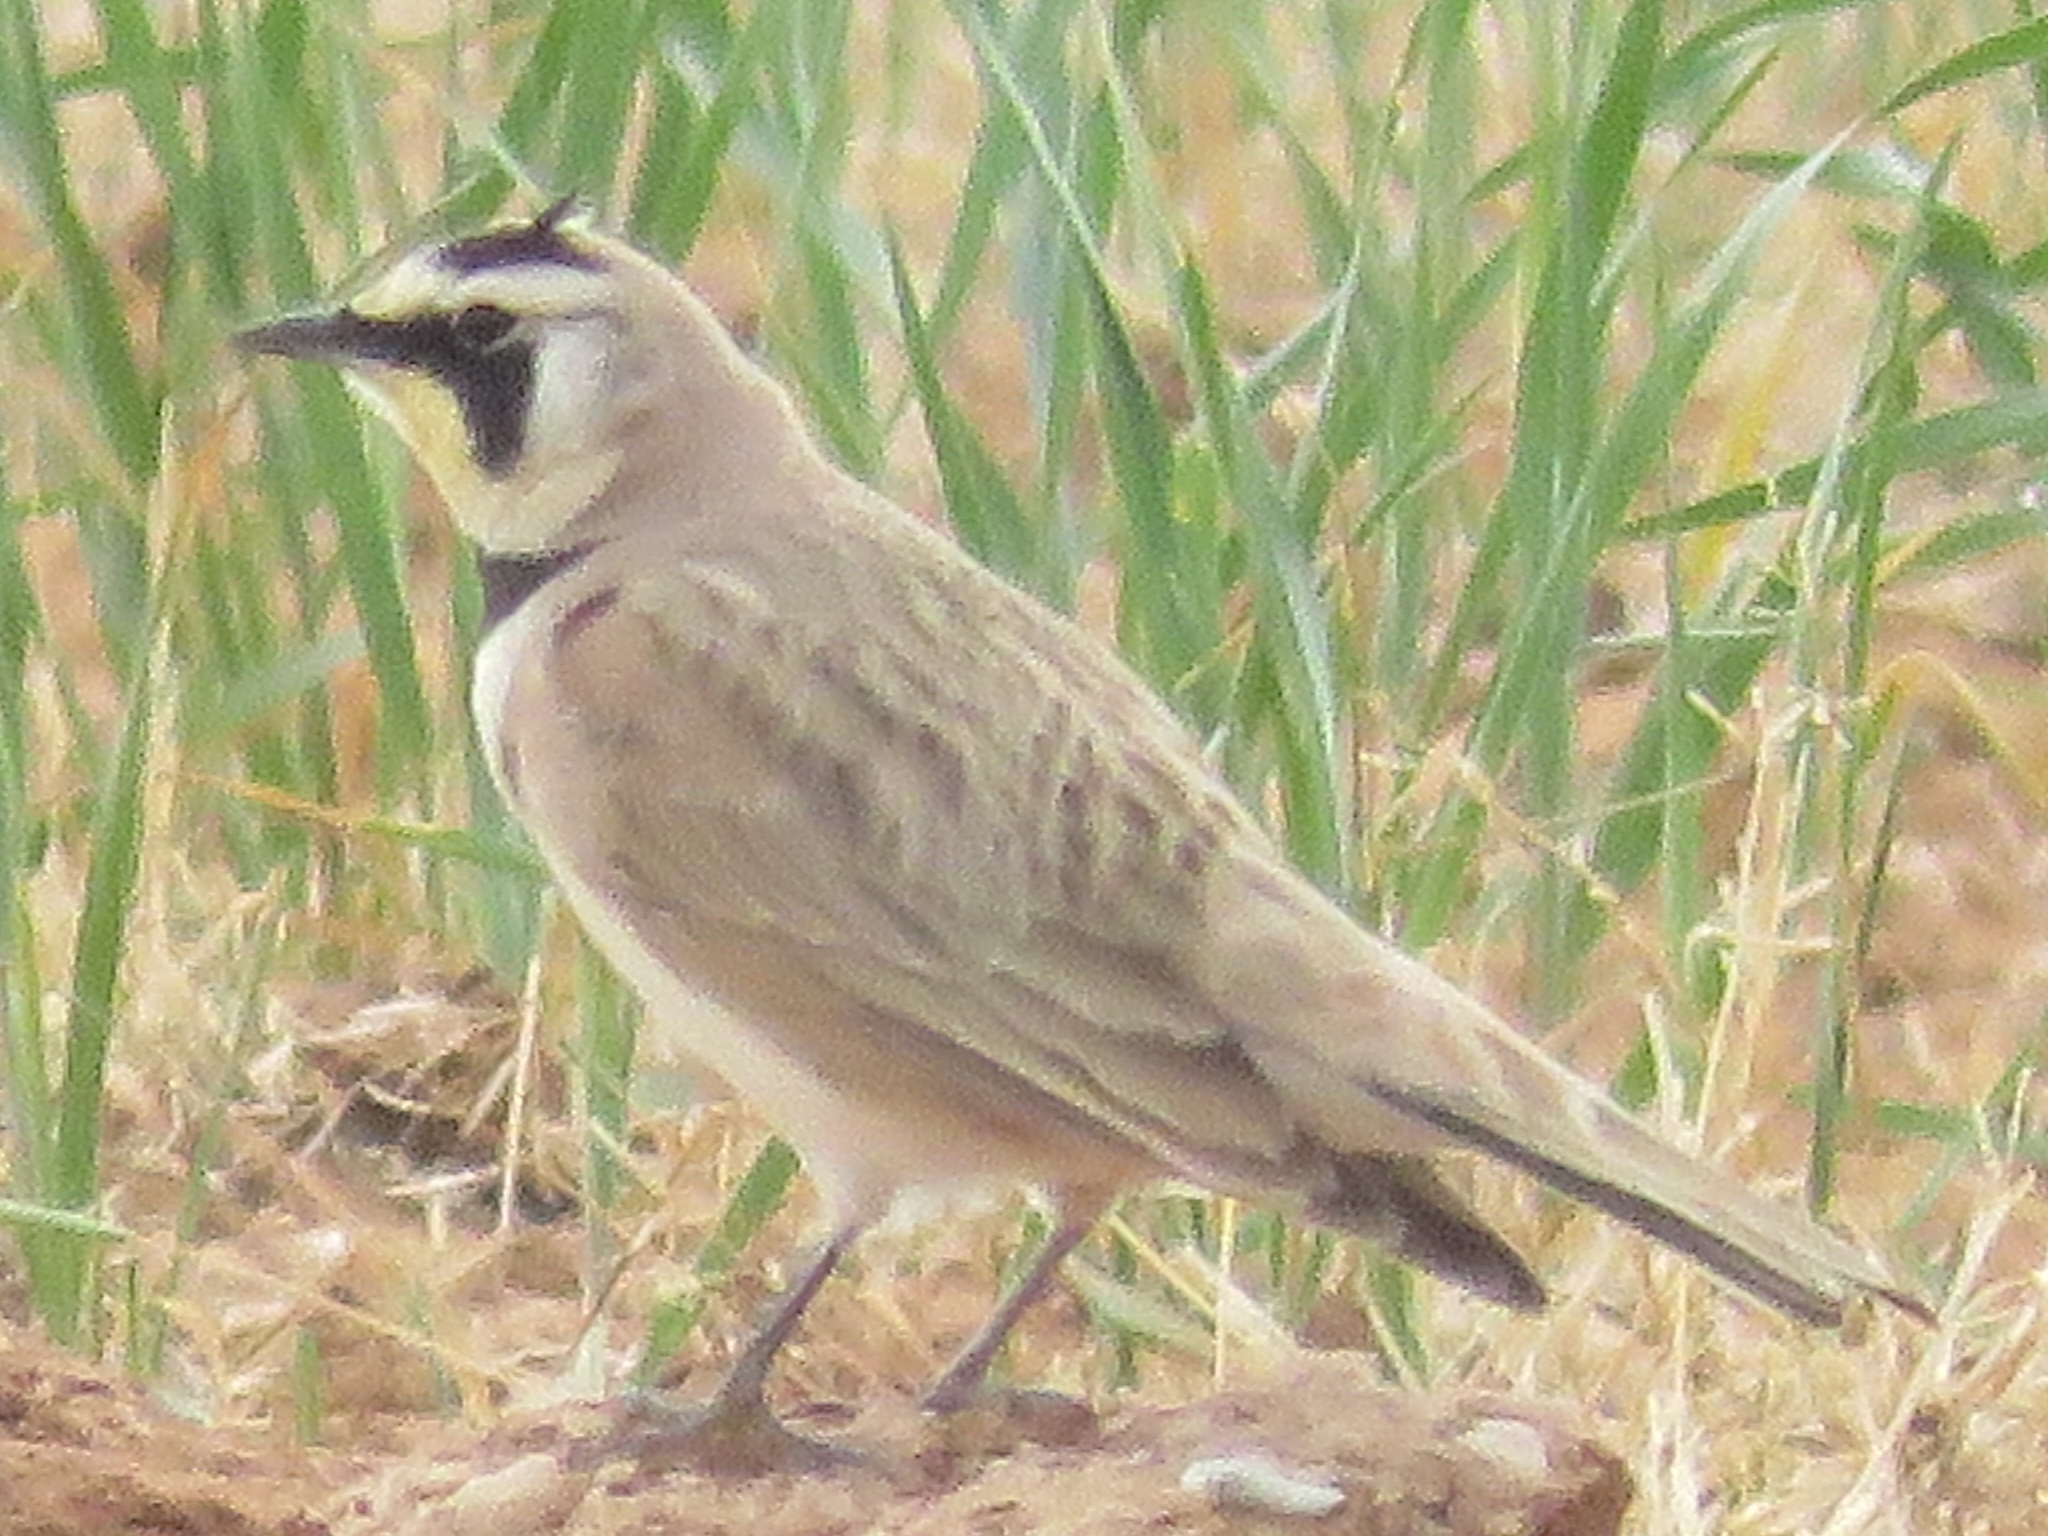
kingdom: Animalia
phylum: Chordata
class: Aves
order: Passeriformes
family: Alaudidae
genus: Eremophila
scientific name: Eremophila alpestris
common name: Horned lark
